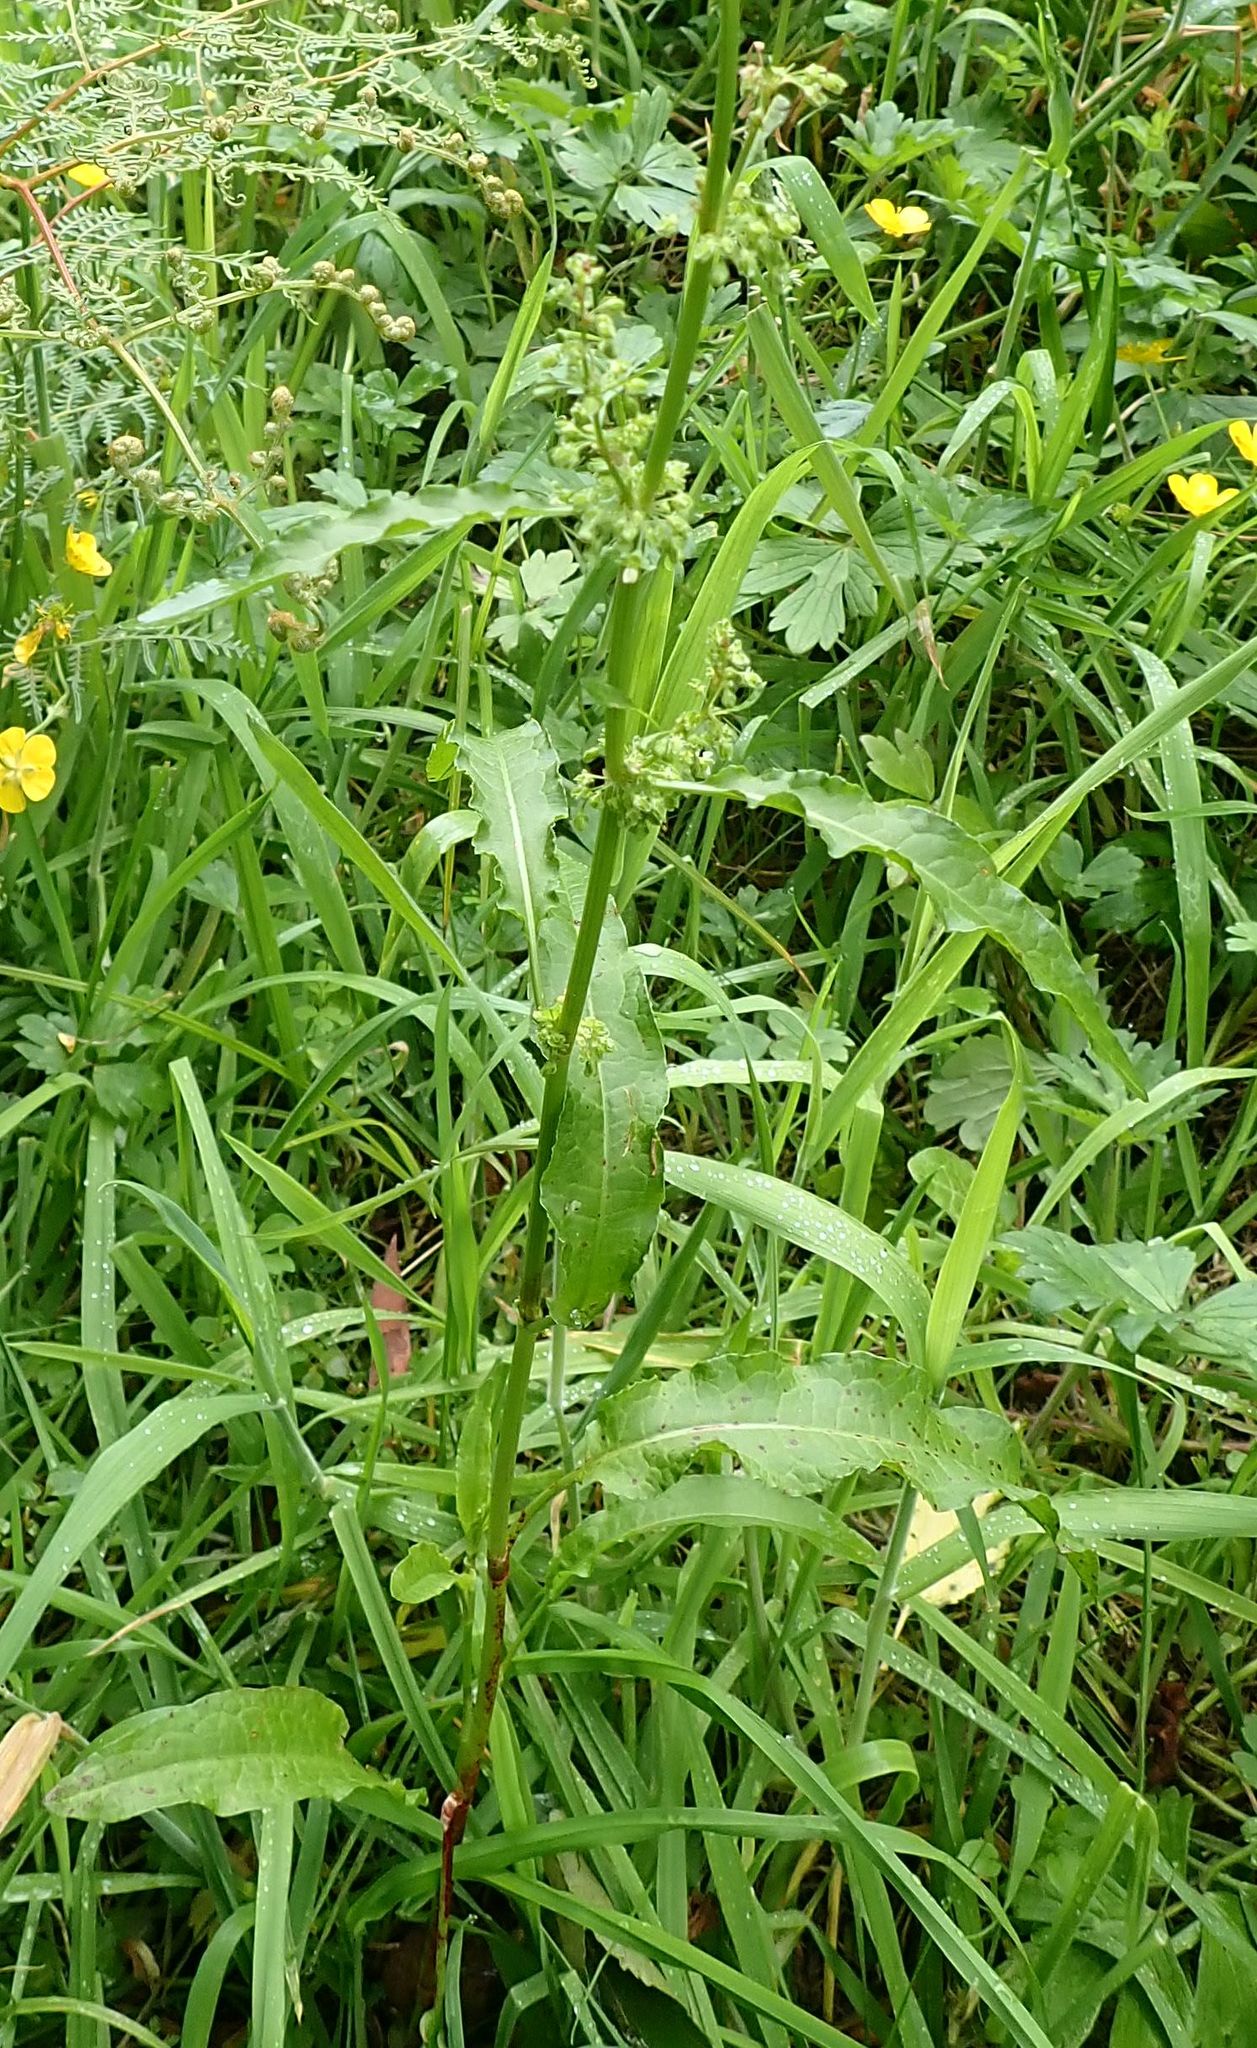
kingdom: Plantae
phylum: Tracheophyta
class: Magnoliopsida
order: Caryophyllales
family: Polygonaceae
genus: Rumex
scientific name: Rumex crispus
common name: Curled dock
